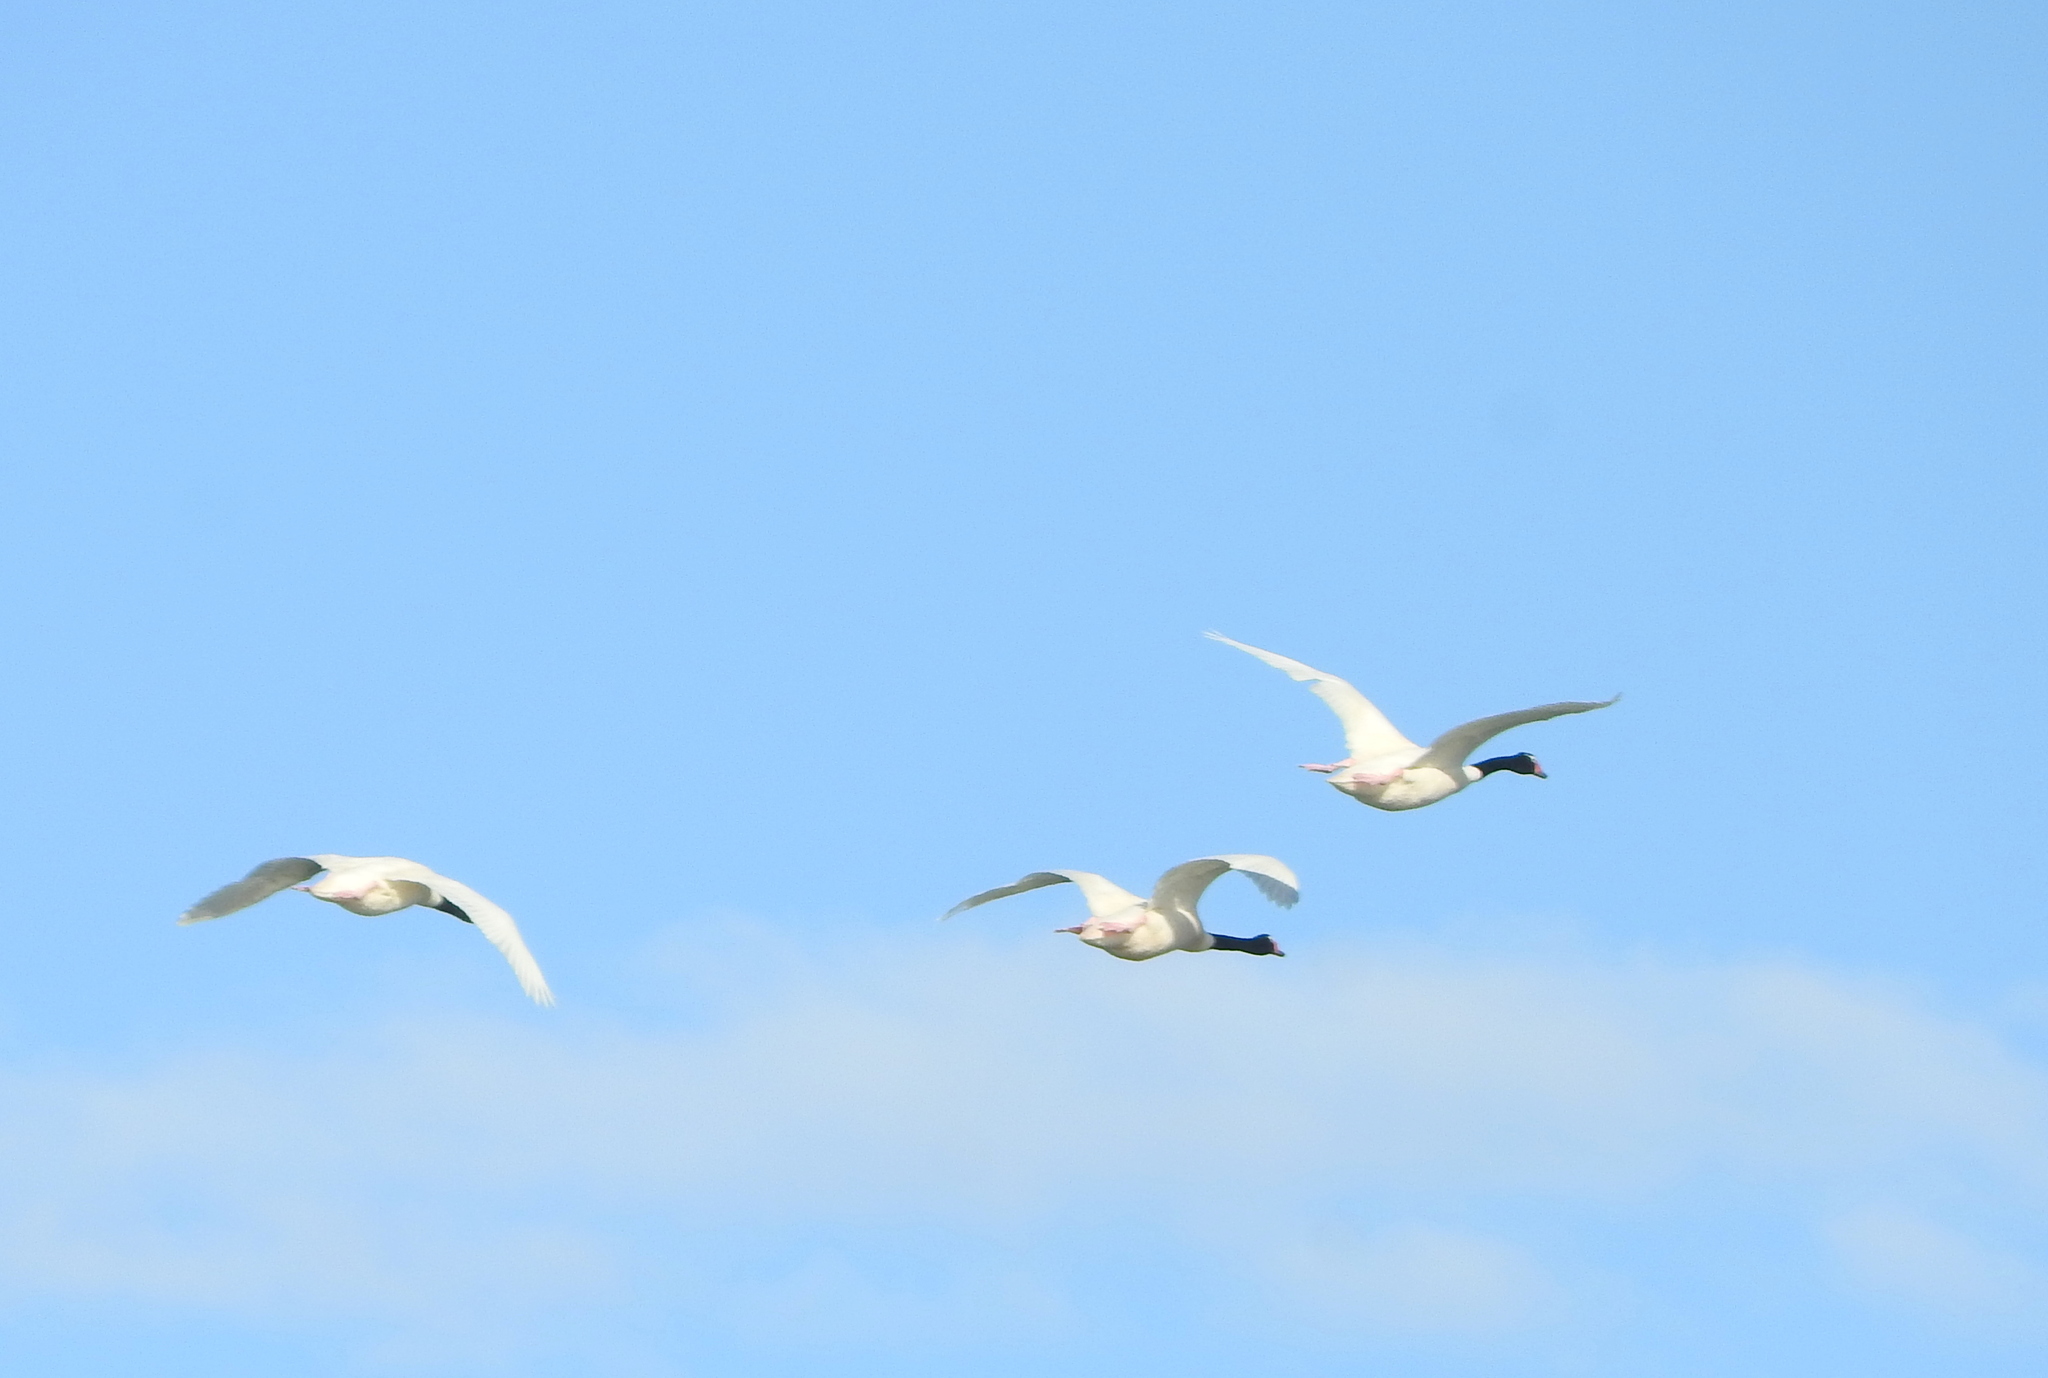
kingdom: Animalia
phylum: Chordata
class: Aves
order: Anseriformes
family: Anatidae
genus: Cygnus
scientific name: Cygnus melancoryphus
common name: Black-necked swan
